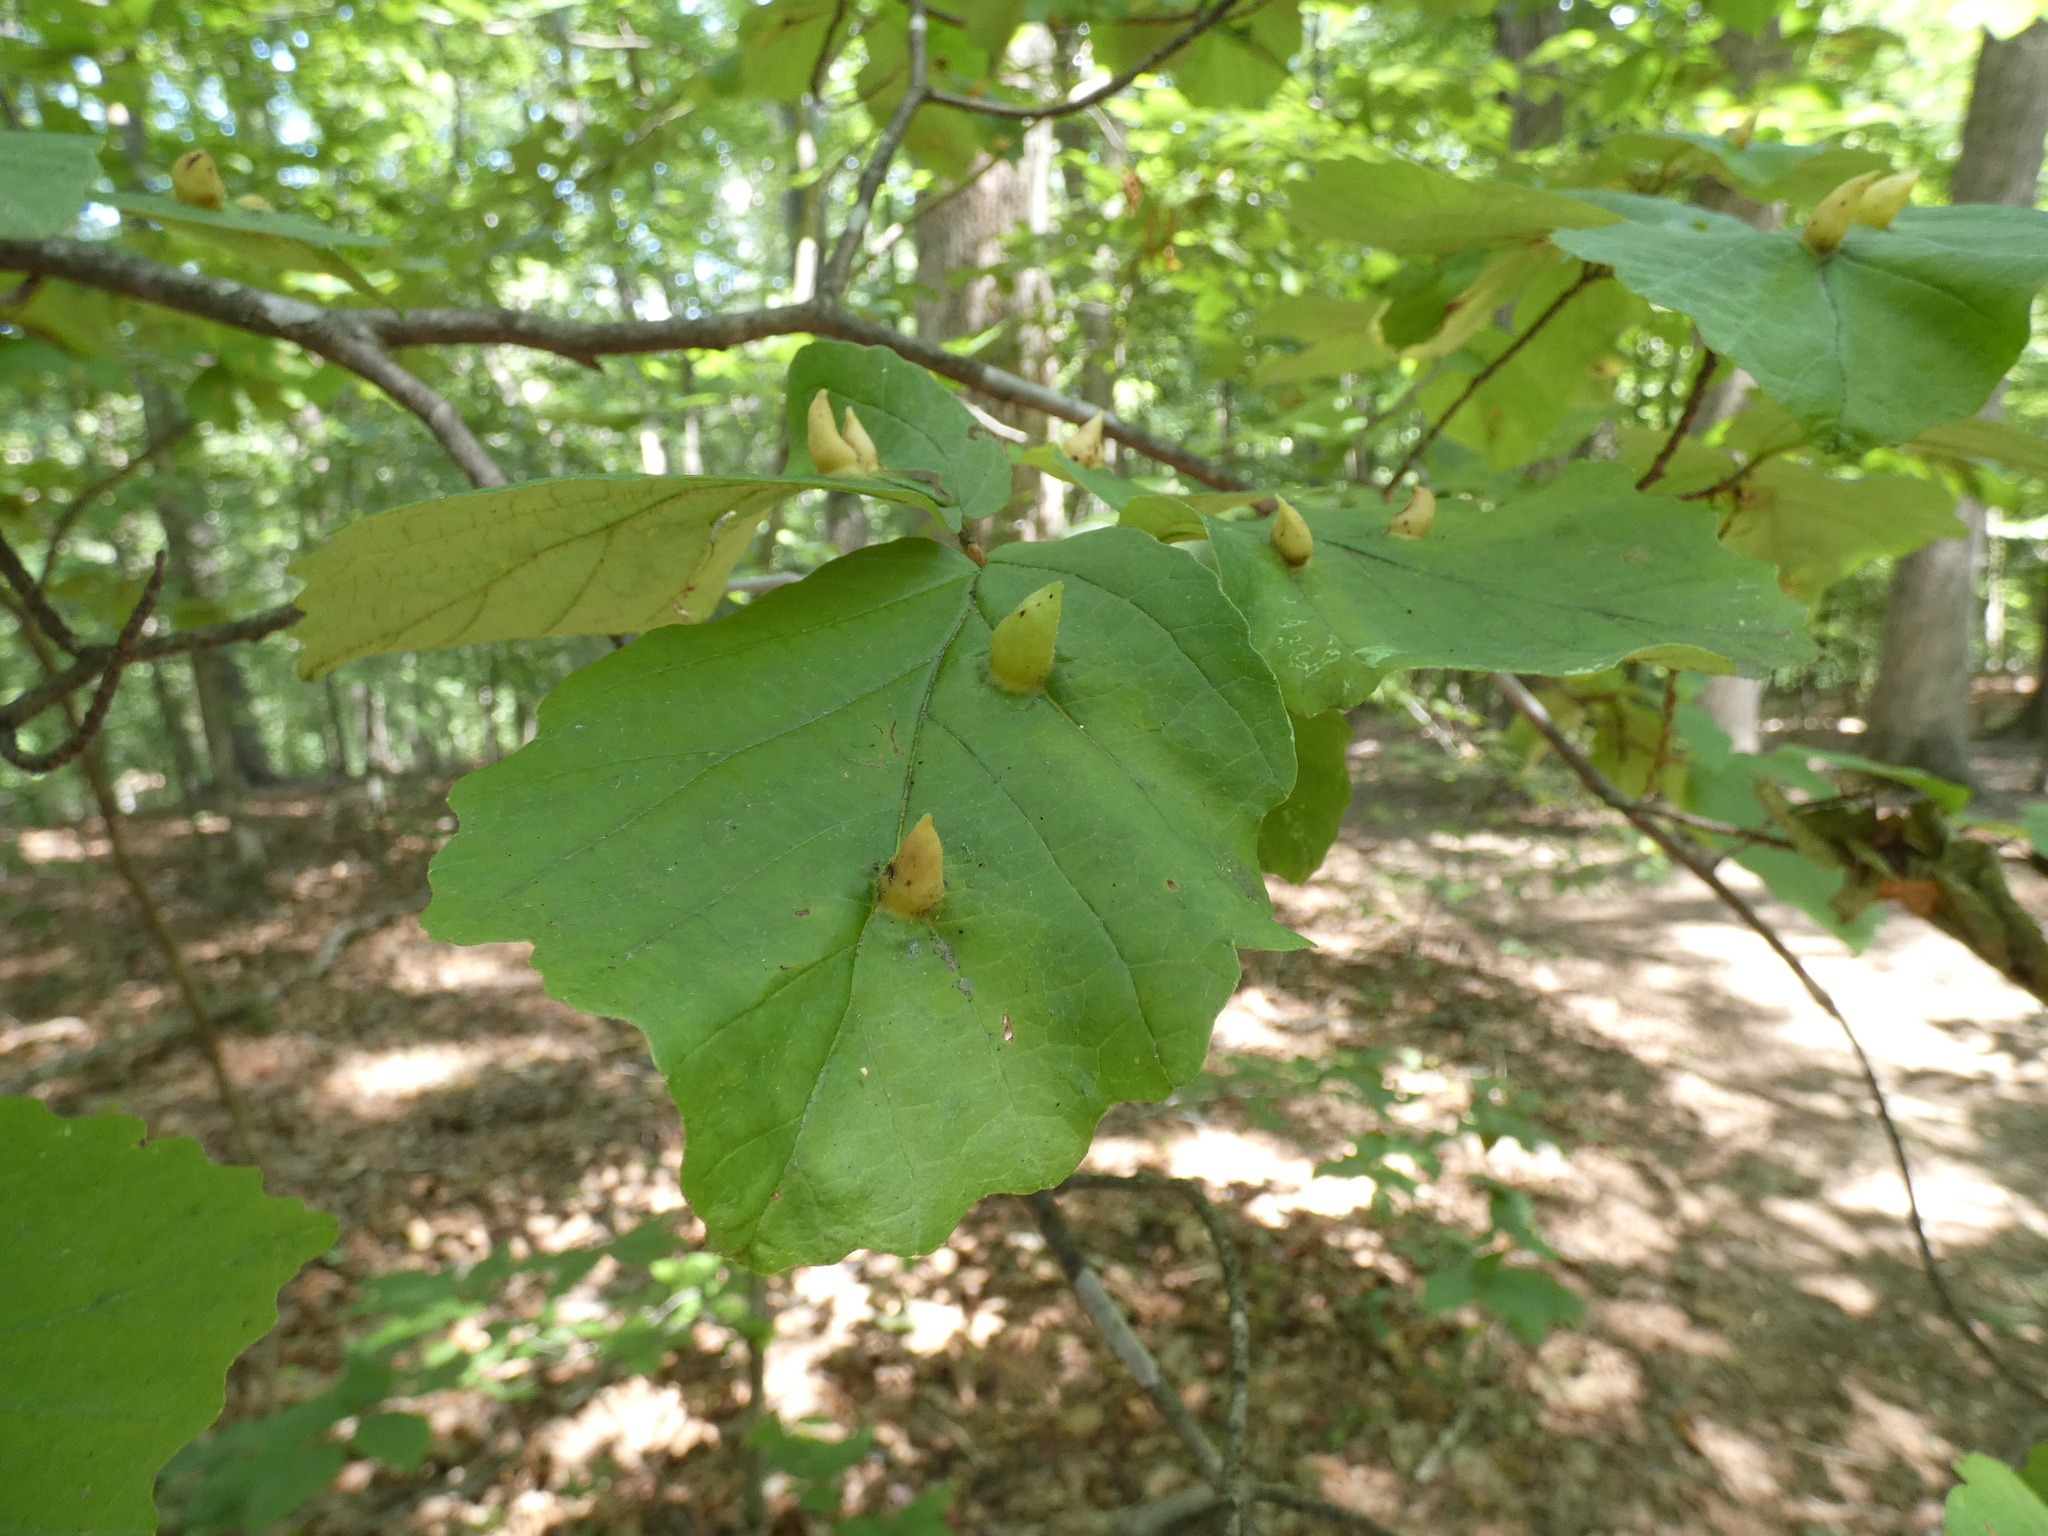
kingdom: Animalia
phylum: Arthropoda
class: Insecta
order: Hemiptera
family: Aphididae
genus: Hormaphis
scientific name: Hormaphis hamamelidis
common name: Witch-hazel cone gall aphid
